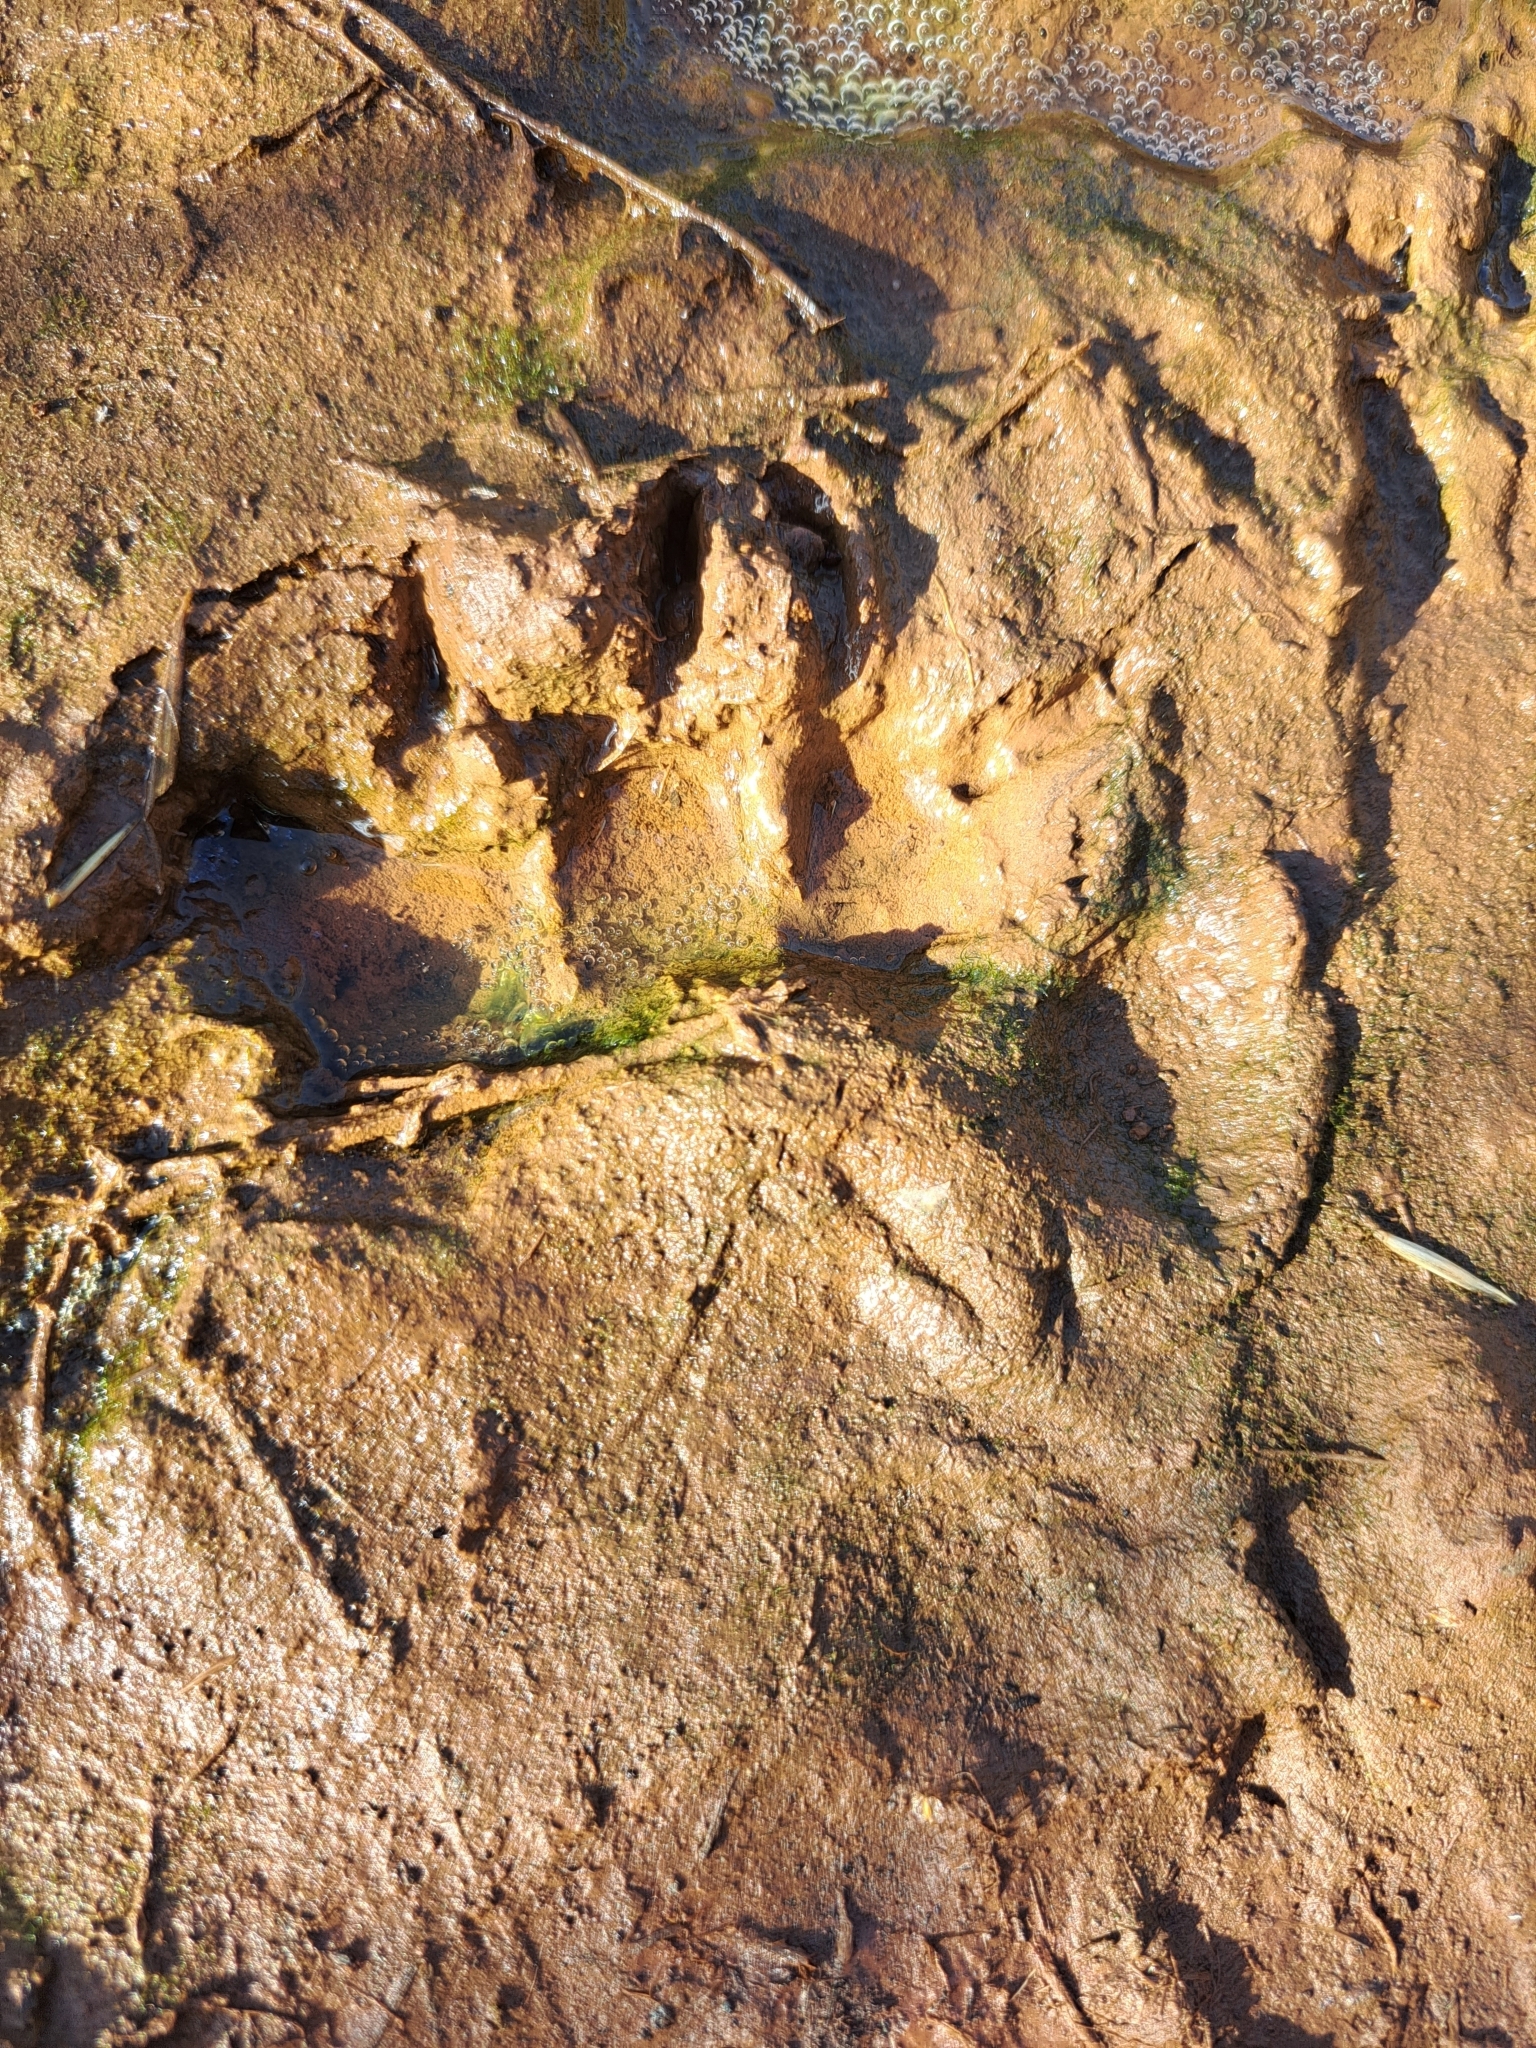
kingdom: Animalia
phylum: Chordata
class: Mammalia
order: Carnivora
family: Ursidae
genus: Ursus
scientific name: Ursus americanus
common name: American black bear
